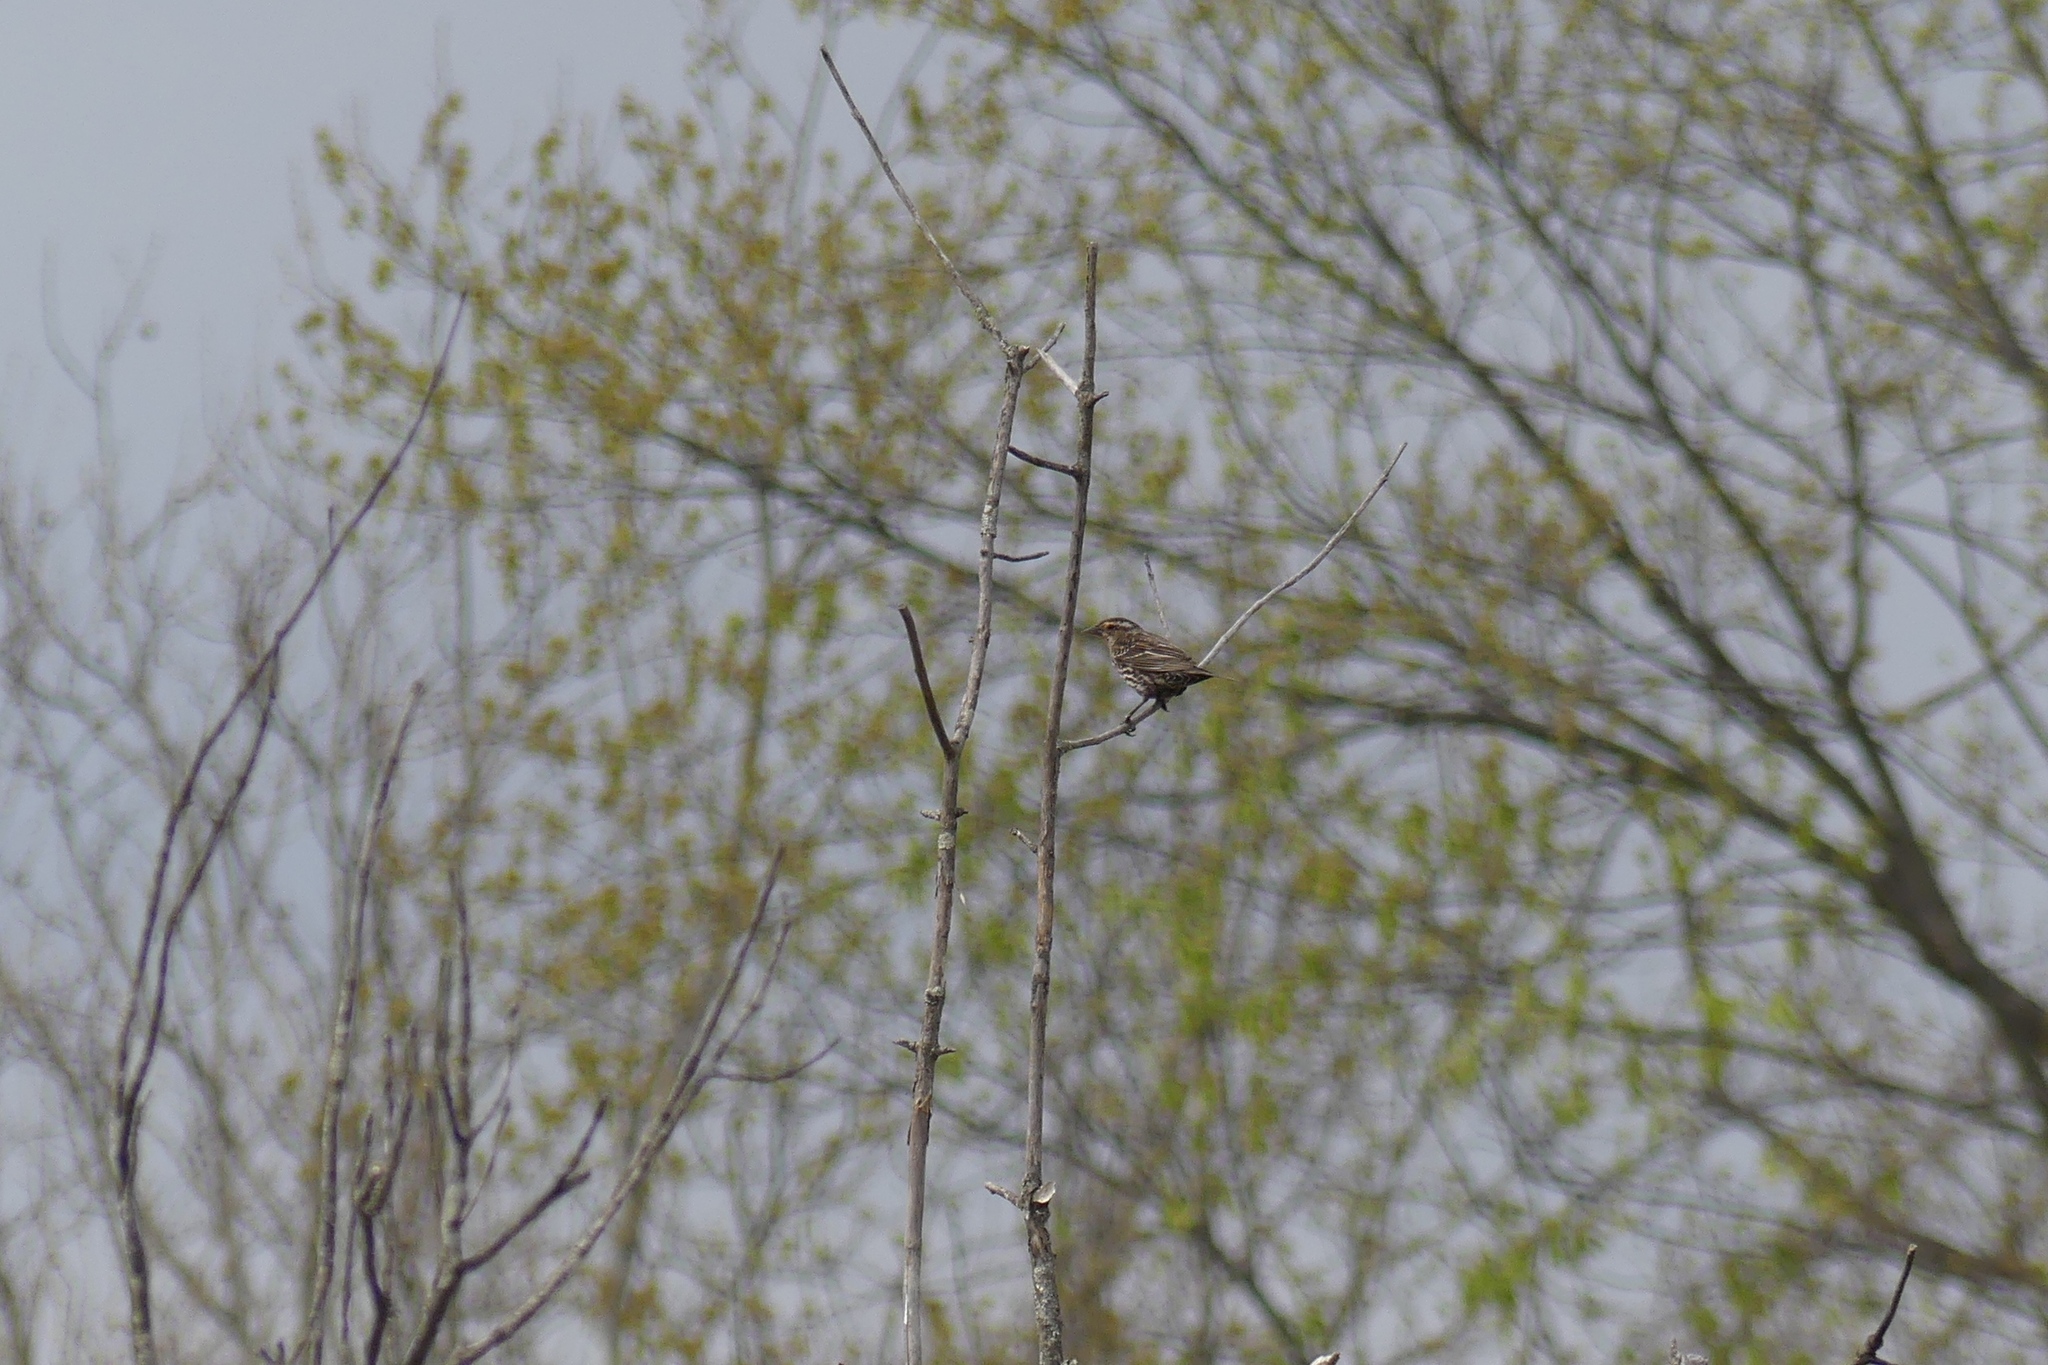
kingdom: Animalia
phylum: Chordata
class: Aves
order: Passeriformes
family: Icteridae
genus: Agelaius
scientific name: Agelaius phoeniceus
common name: Red-winged blackbird
